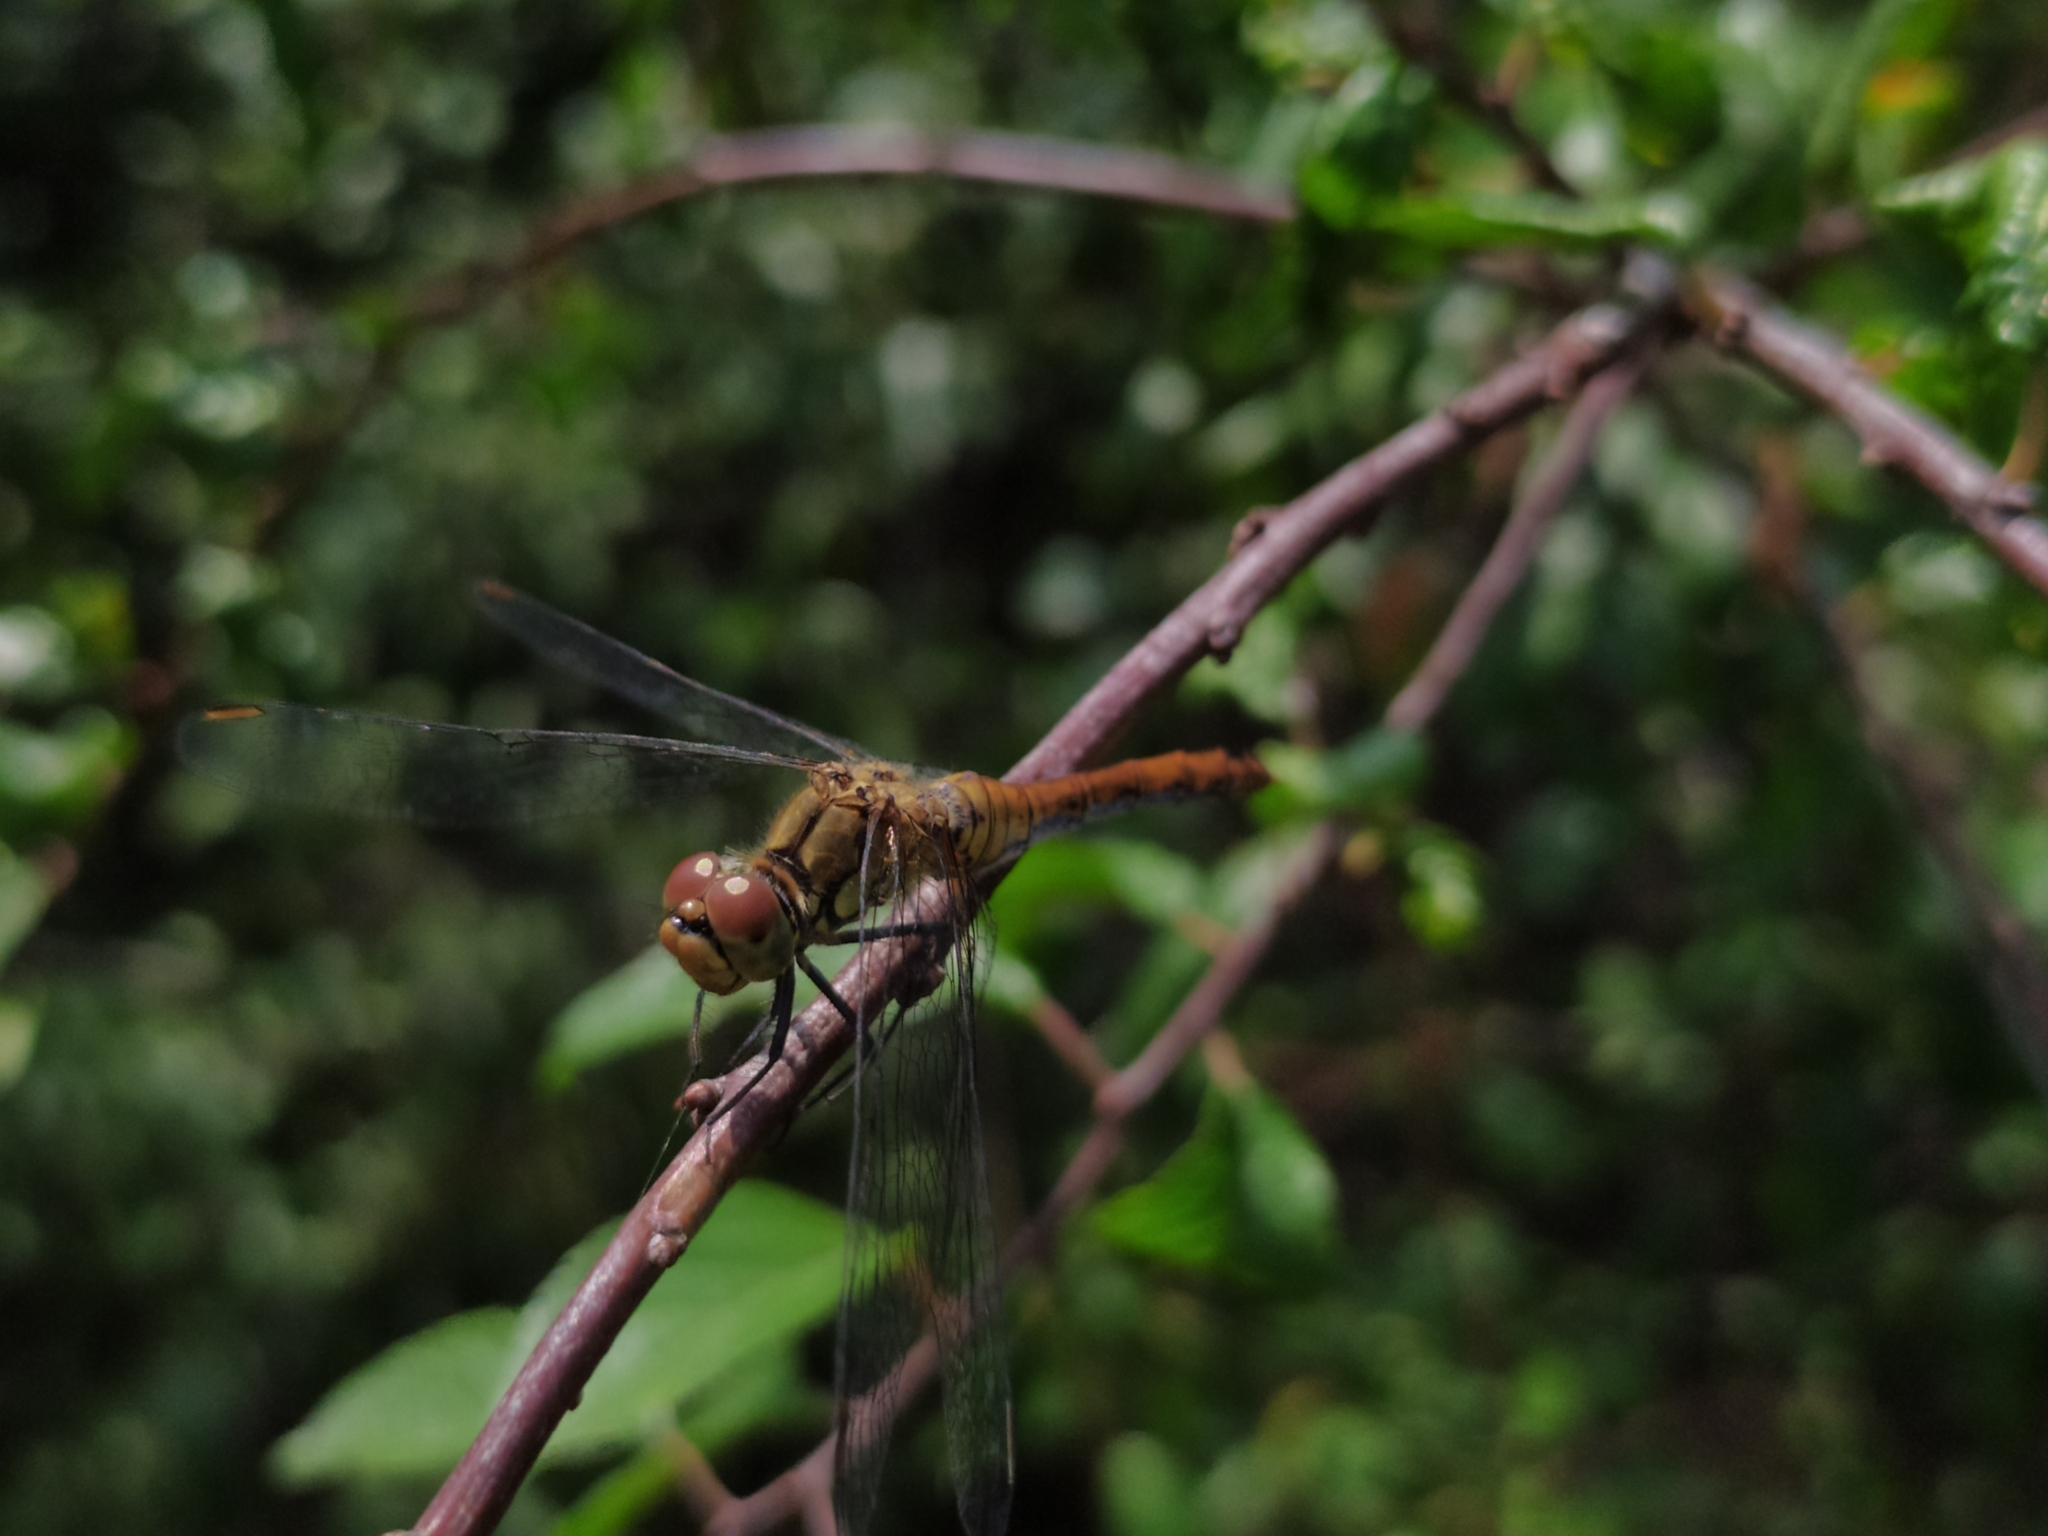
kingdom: Animalia
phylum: Arthropoda
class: Insecta
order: Odonata
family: Libellulidae
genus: Sympetrum
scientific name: Sympetrum sanguineum
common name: Ruddy darter
